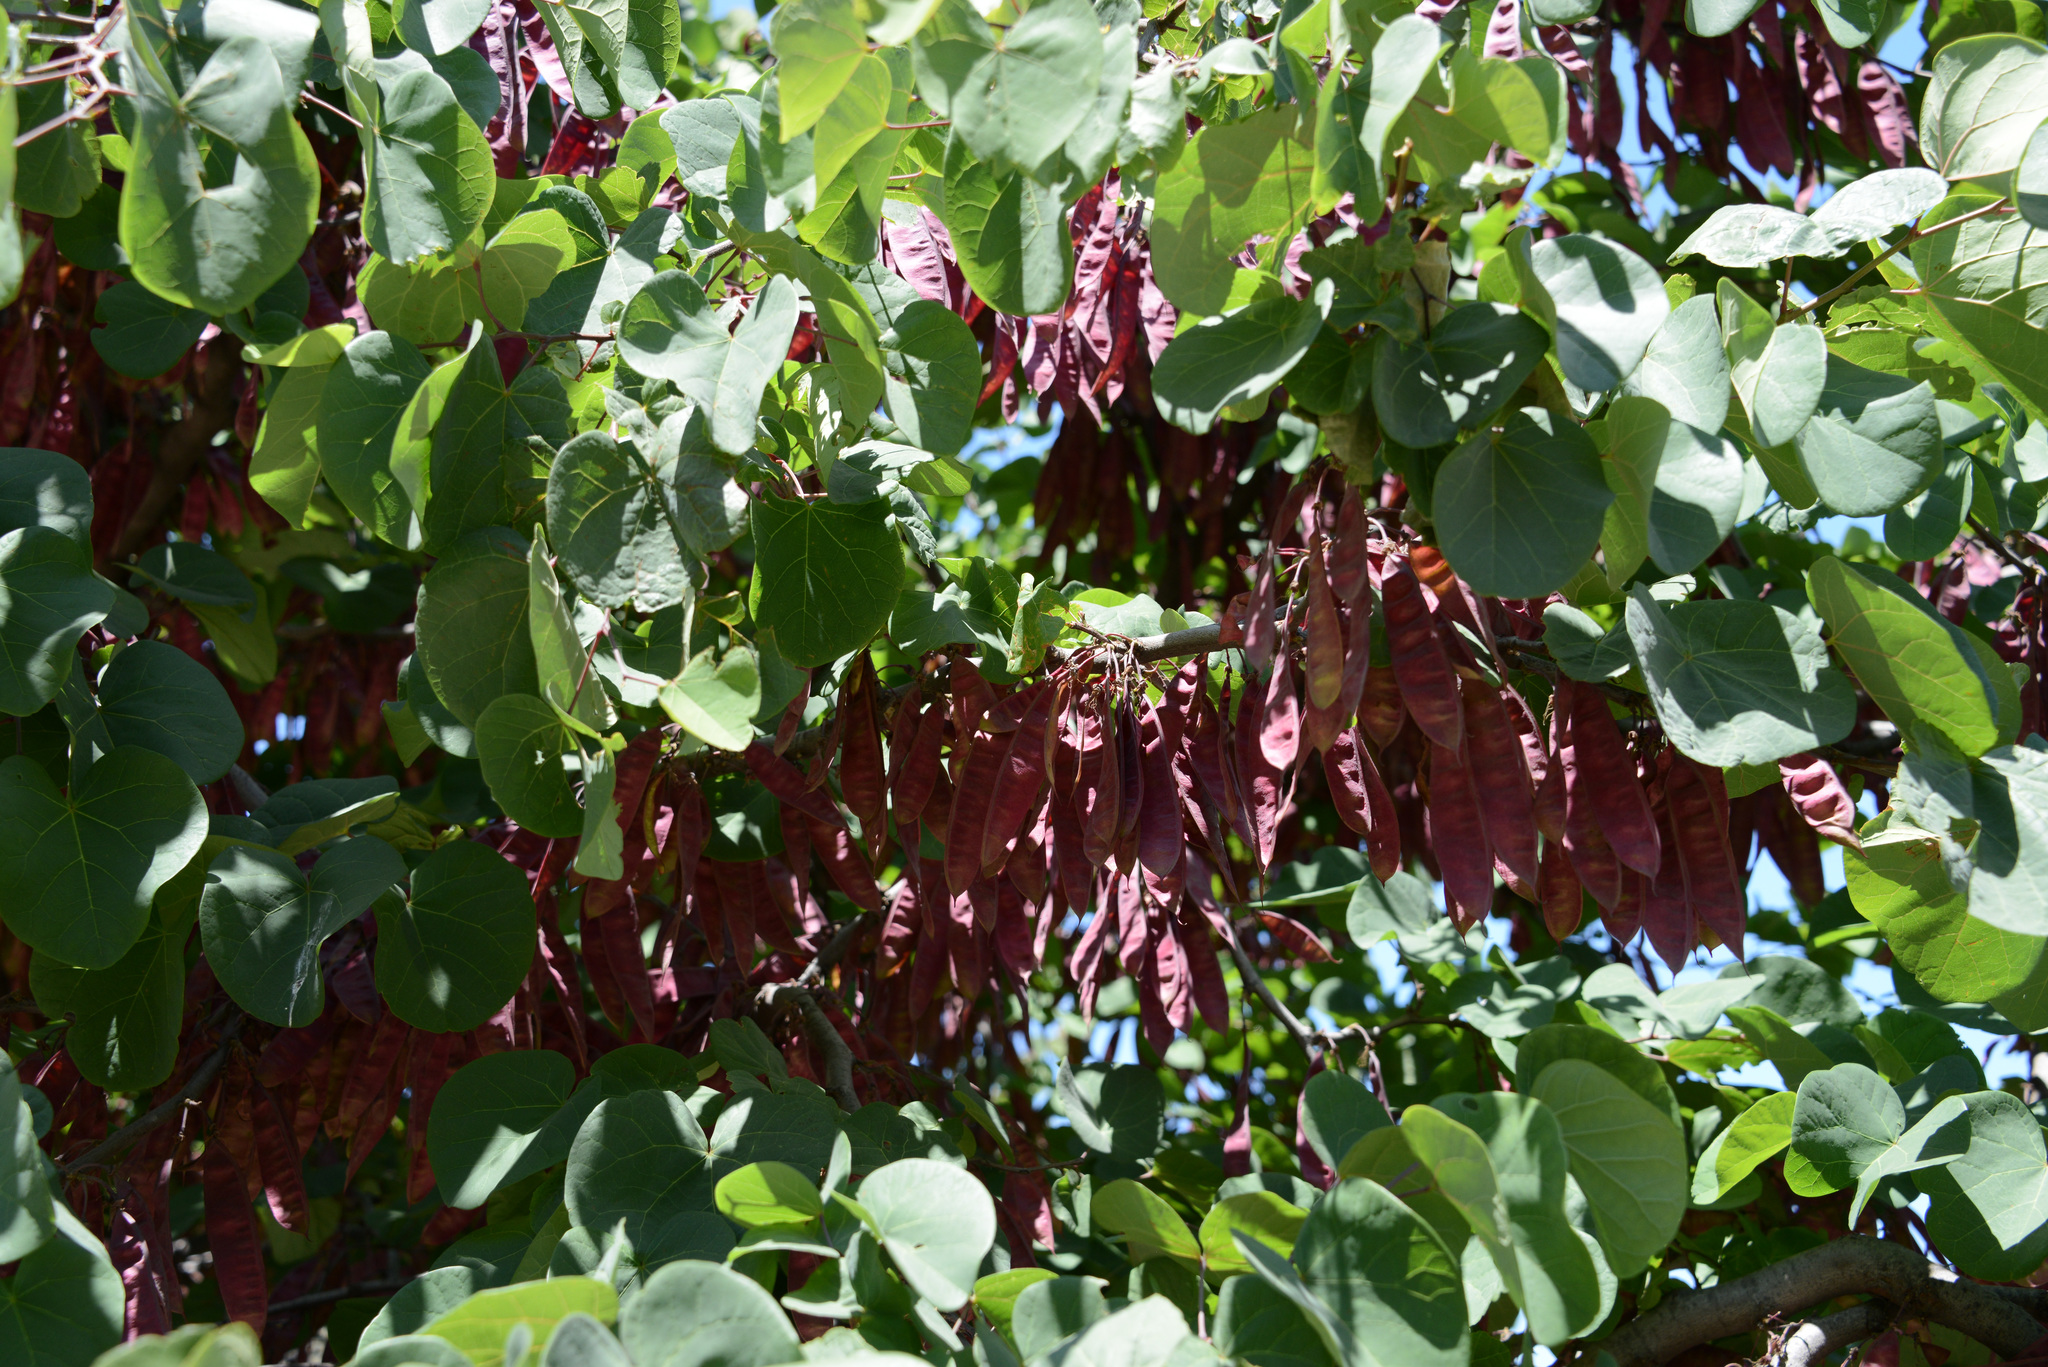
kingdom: Plantae
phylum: Tracheophyta
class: Magnoliopsida
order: Fabales
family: Fabaceae
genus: Cercis
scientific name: Cercis siliquastrum
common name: Judas tree
